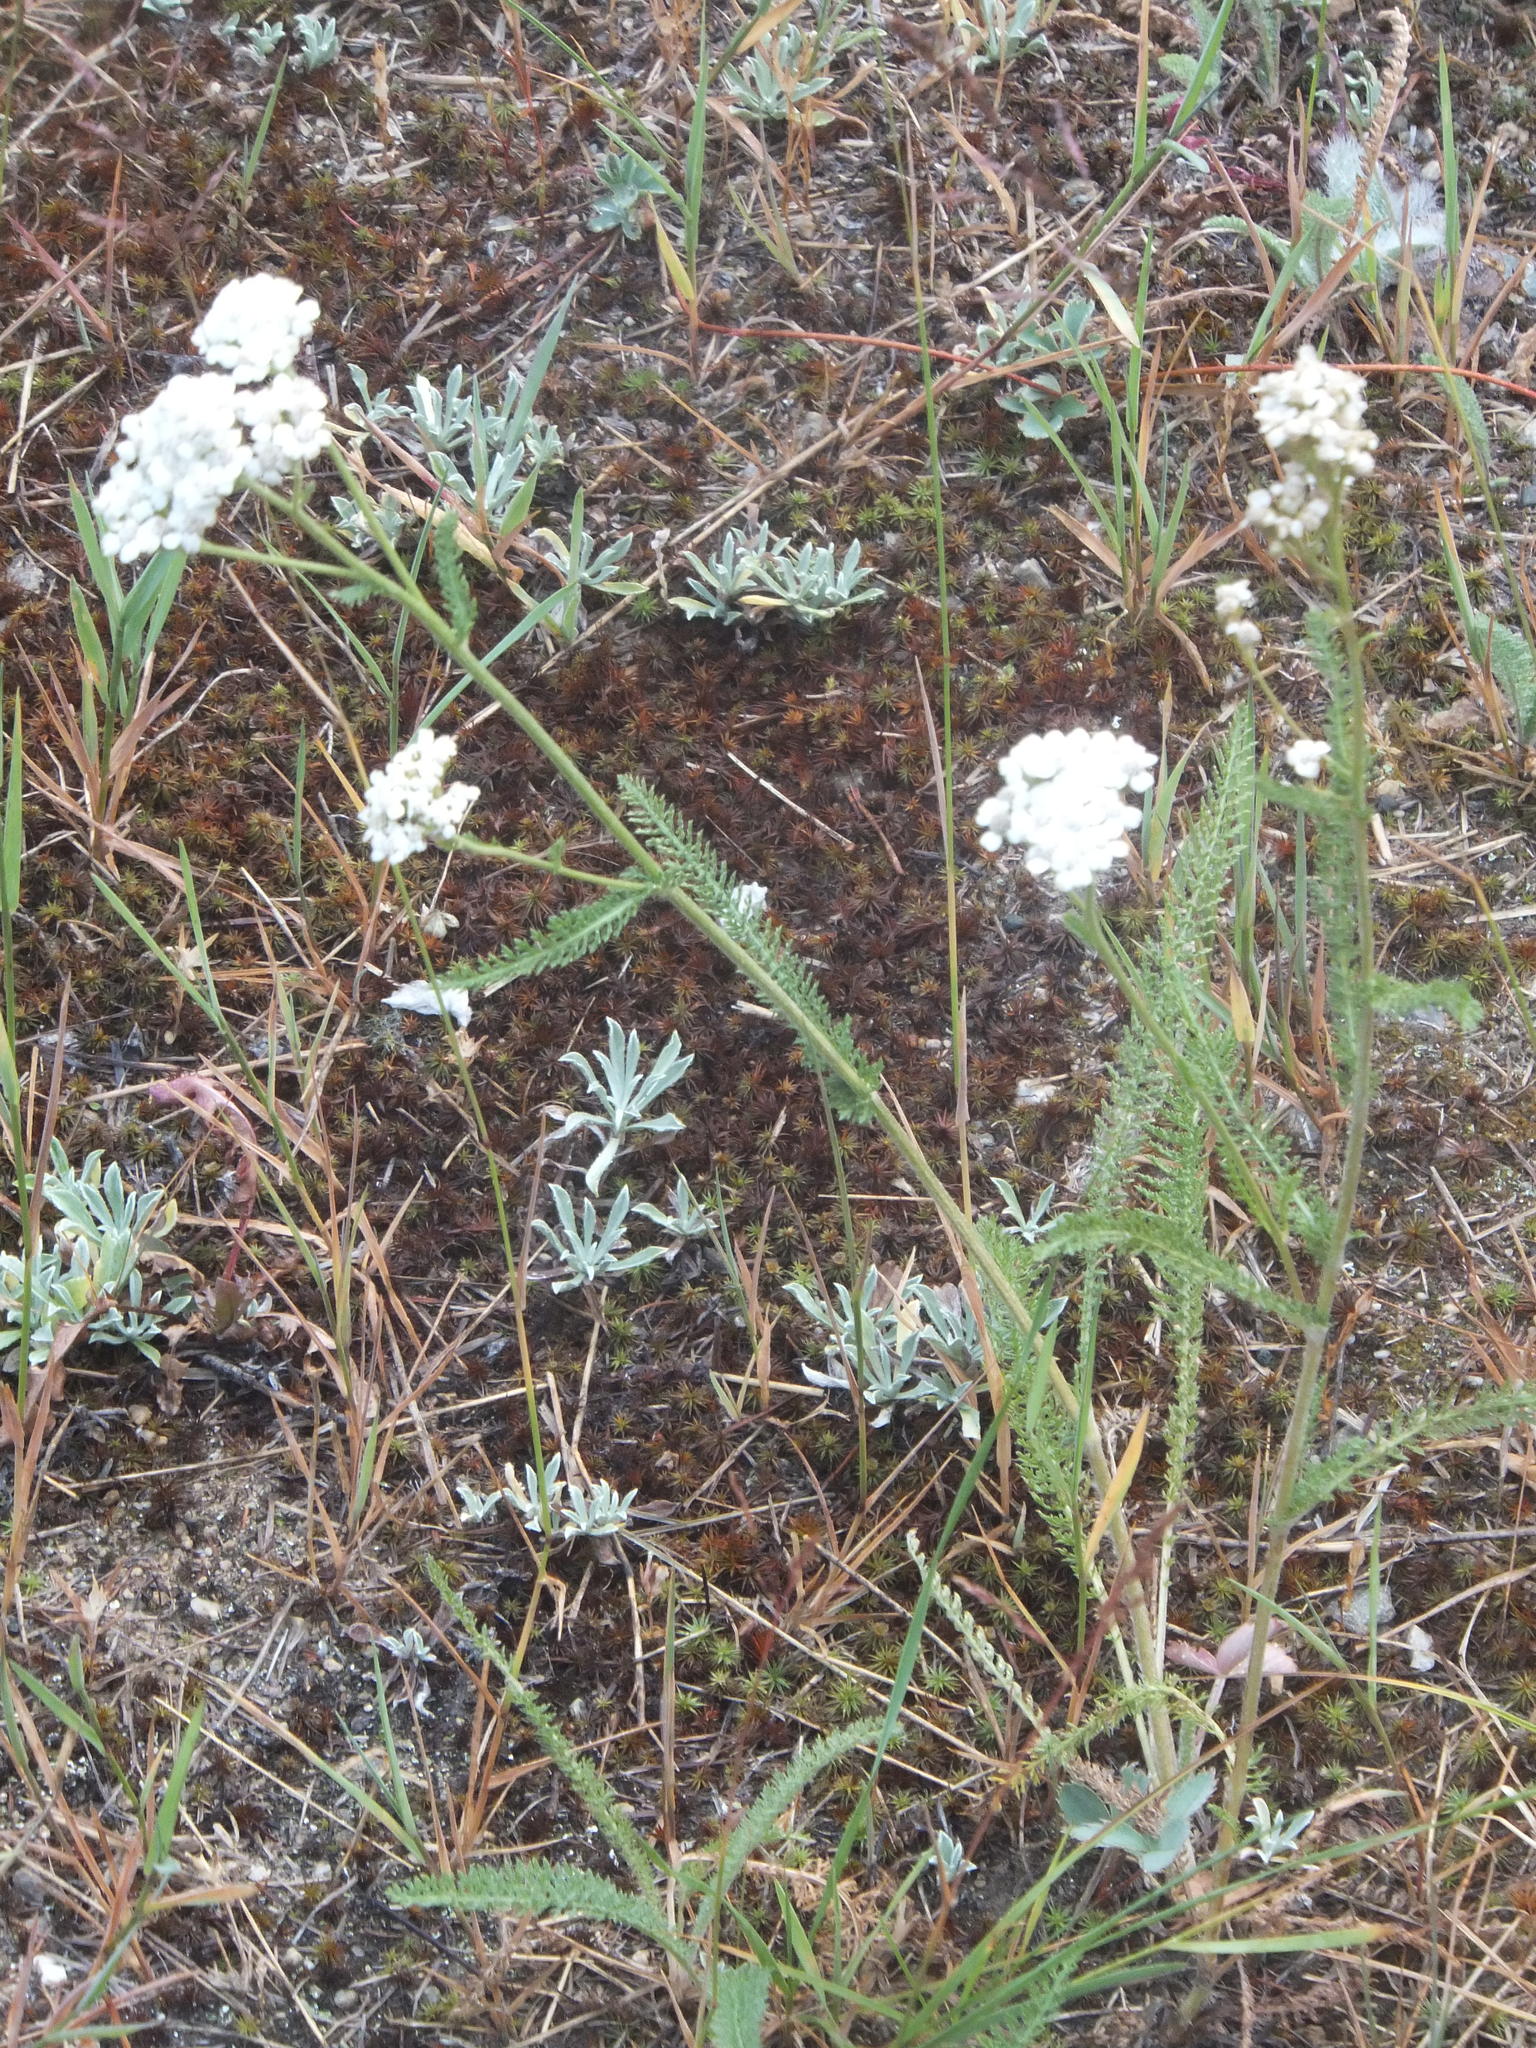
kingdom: Plantae
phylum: Tracheophyta
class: Magnoliopsida
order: Asterales
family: Asteraceae
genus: Achillea
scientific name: Achillea millefolium
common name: Yarrow
